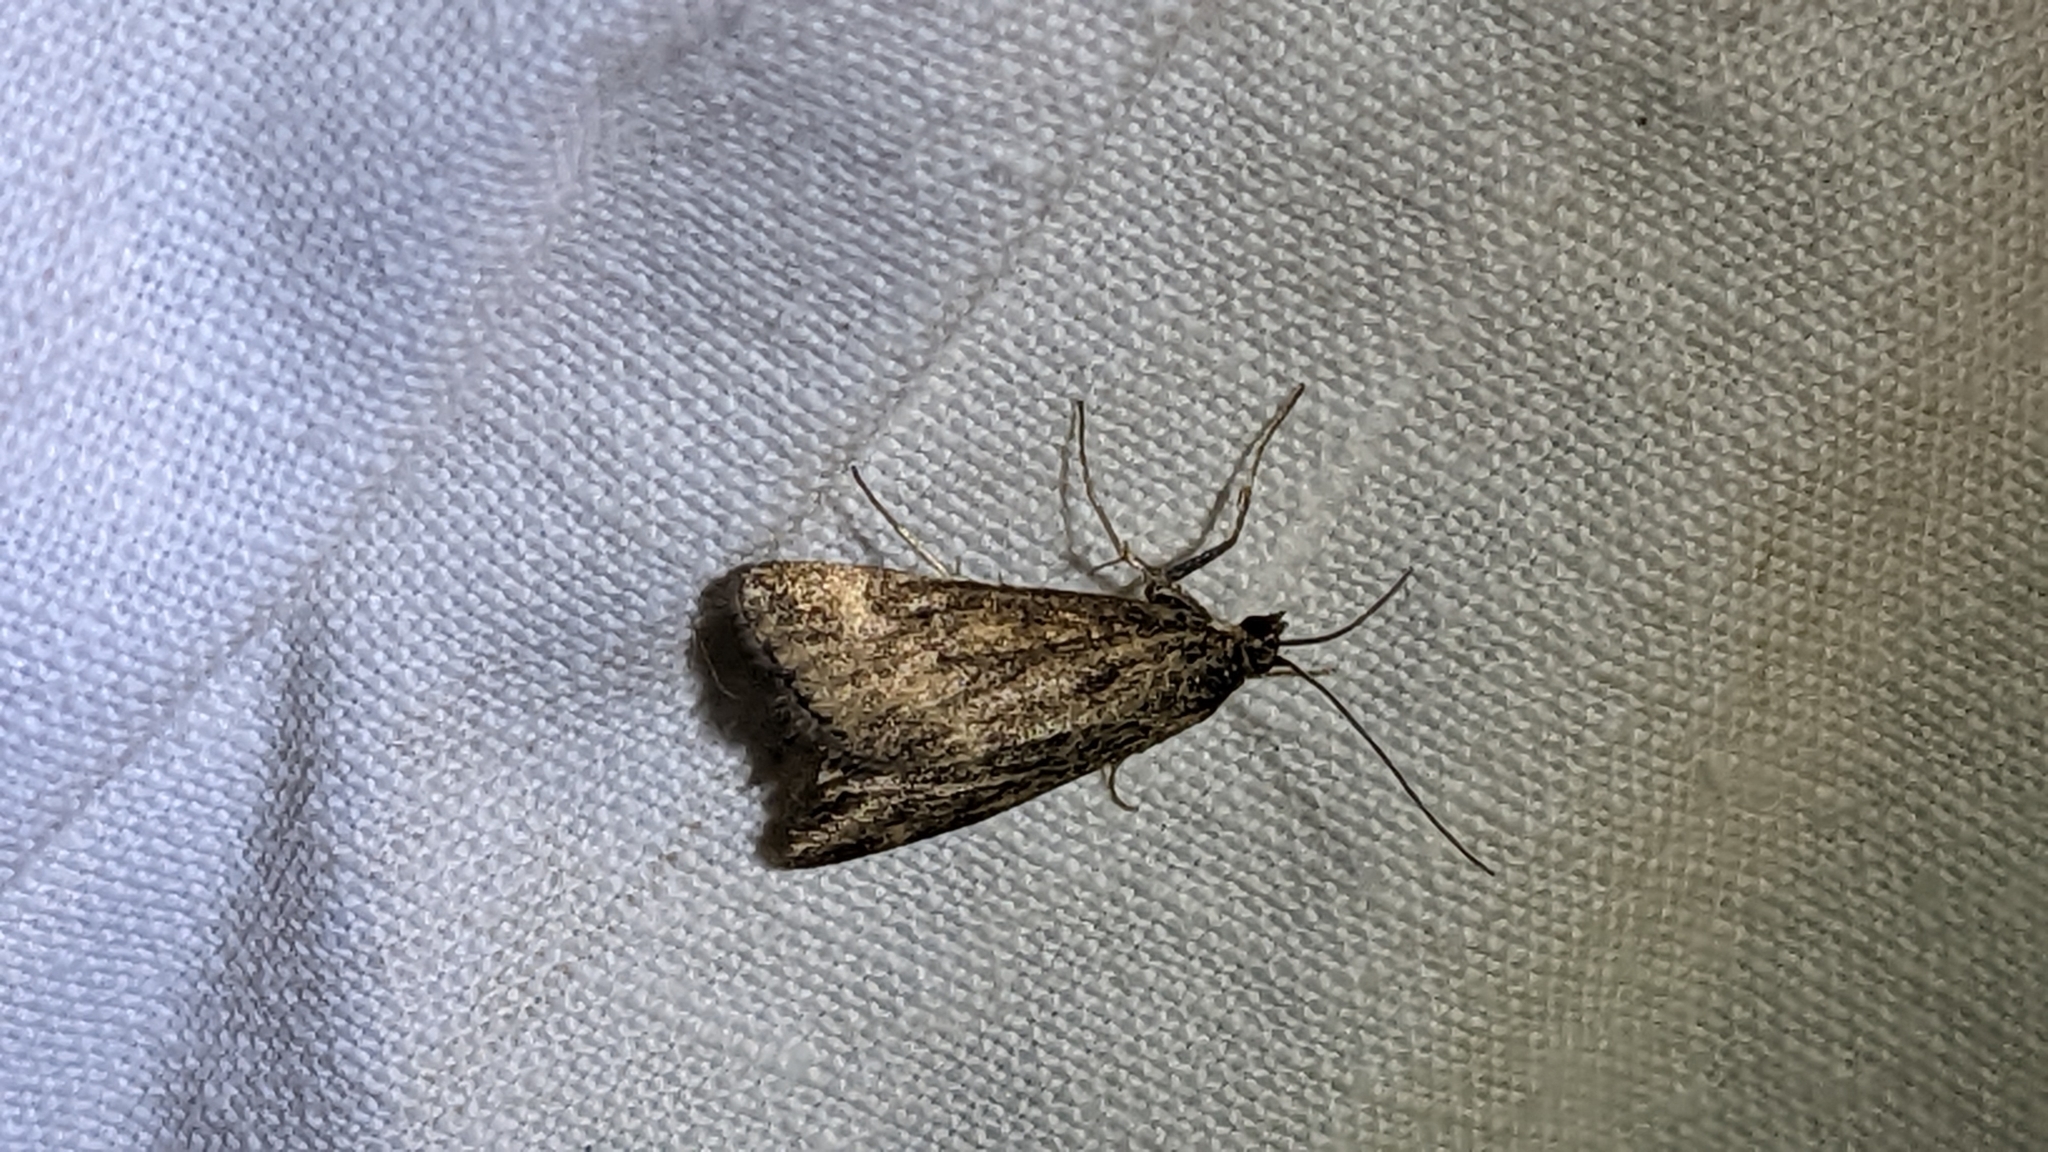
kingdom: Animalia
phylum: Arthropoda
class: Insecta
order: Lepidoptera
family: Crambidae
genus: Pyrausta
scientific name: Pyrausta despicata
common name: Straw-barred pearl
